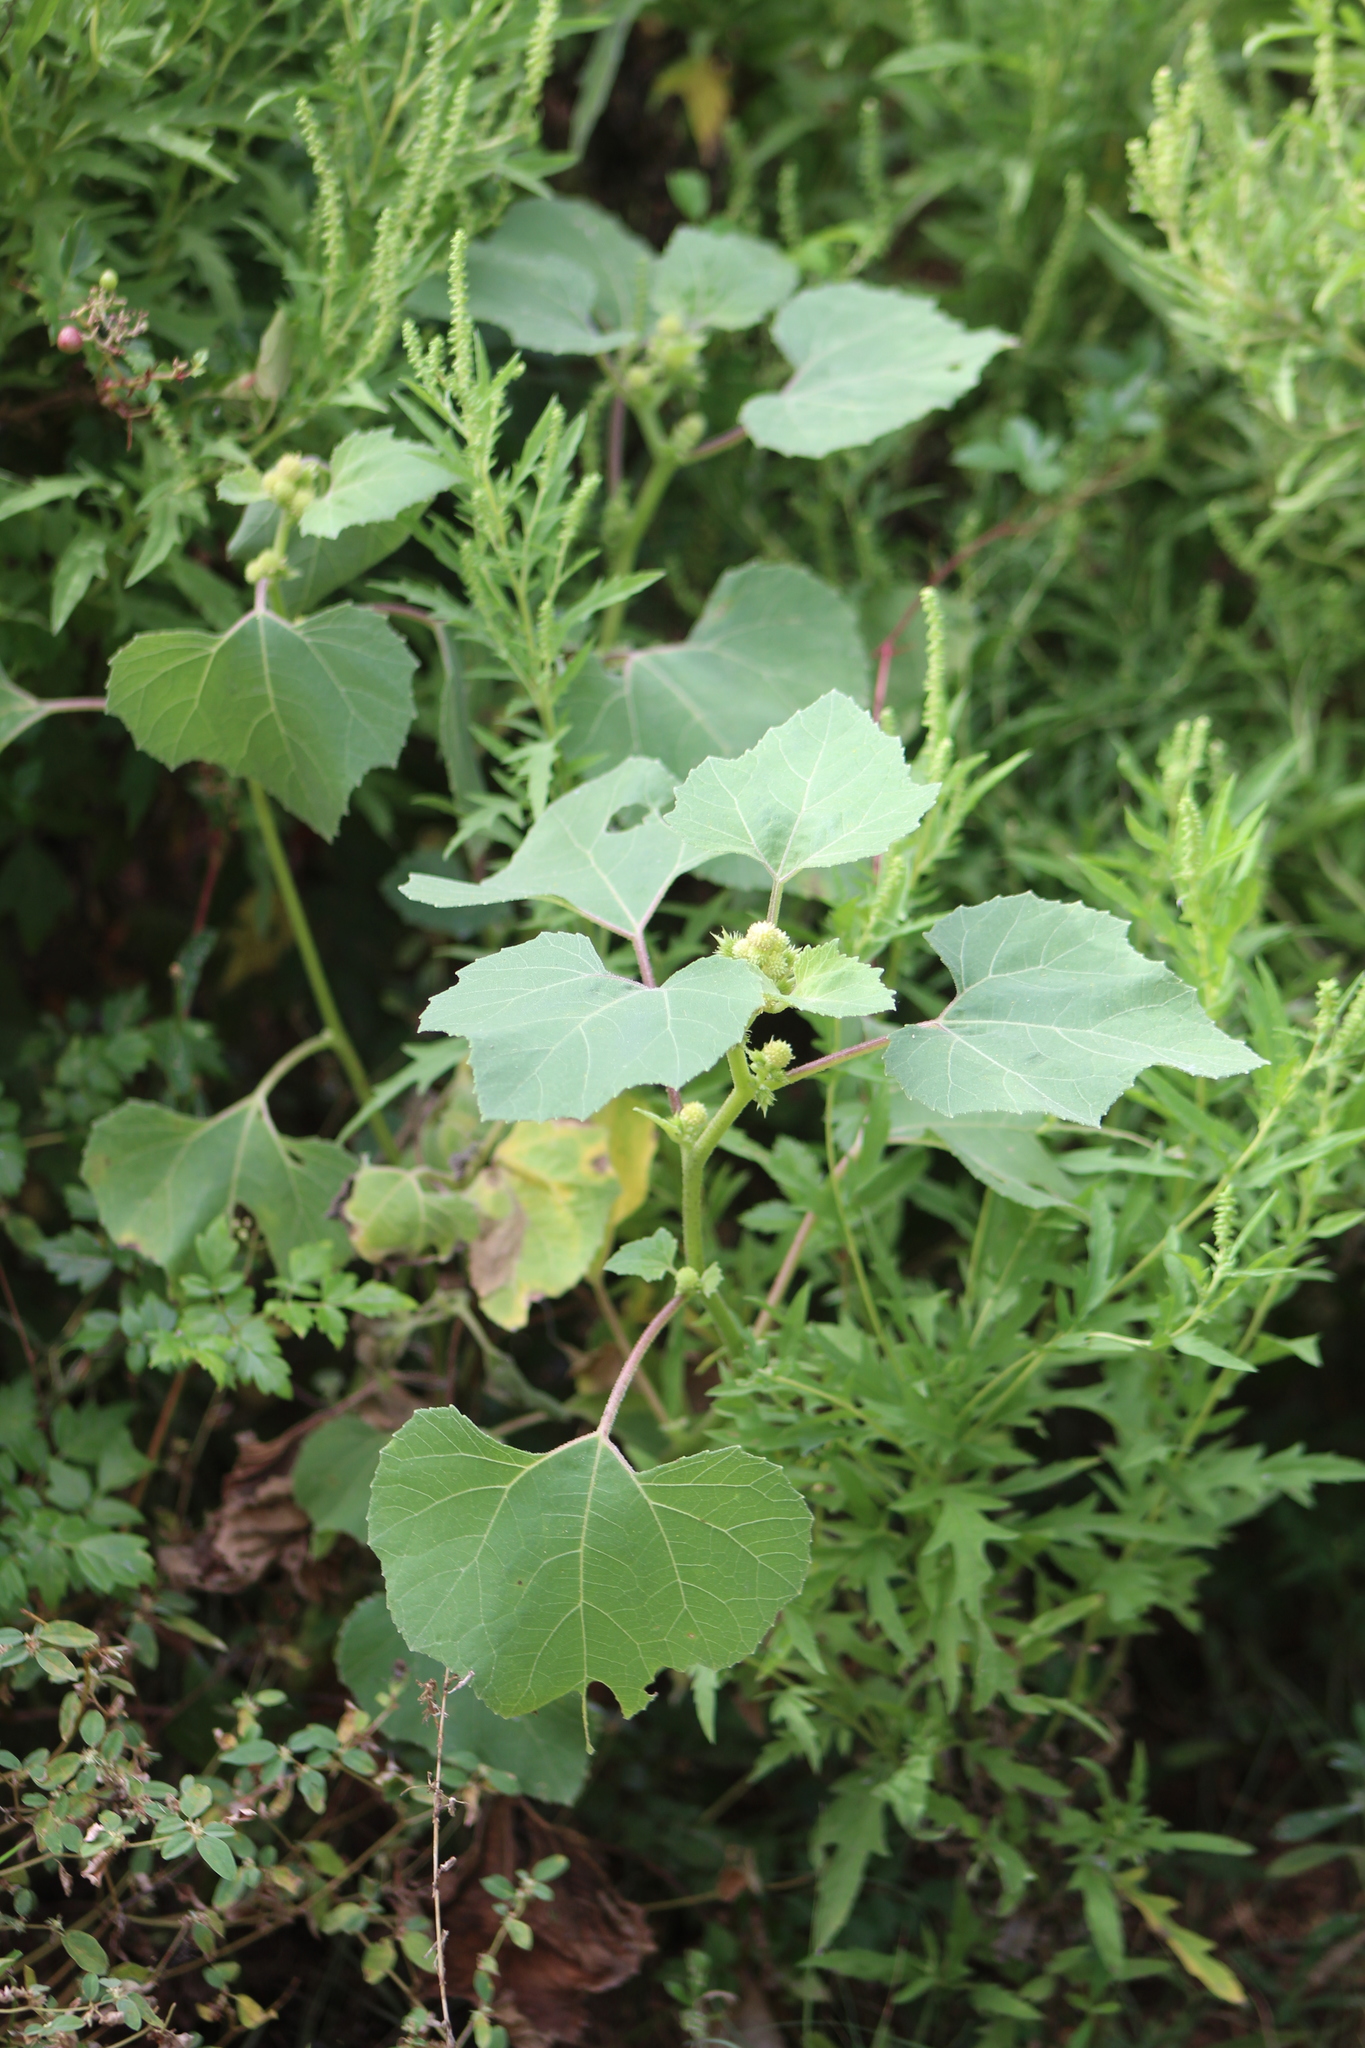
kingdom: Plantae
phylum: Tracheophyta
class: Magnoliopsida
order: Asterales
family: Asteraceae
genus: Xanthium
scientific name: Xanthium strumarium
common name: Rough cocklebur
